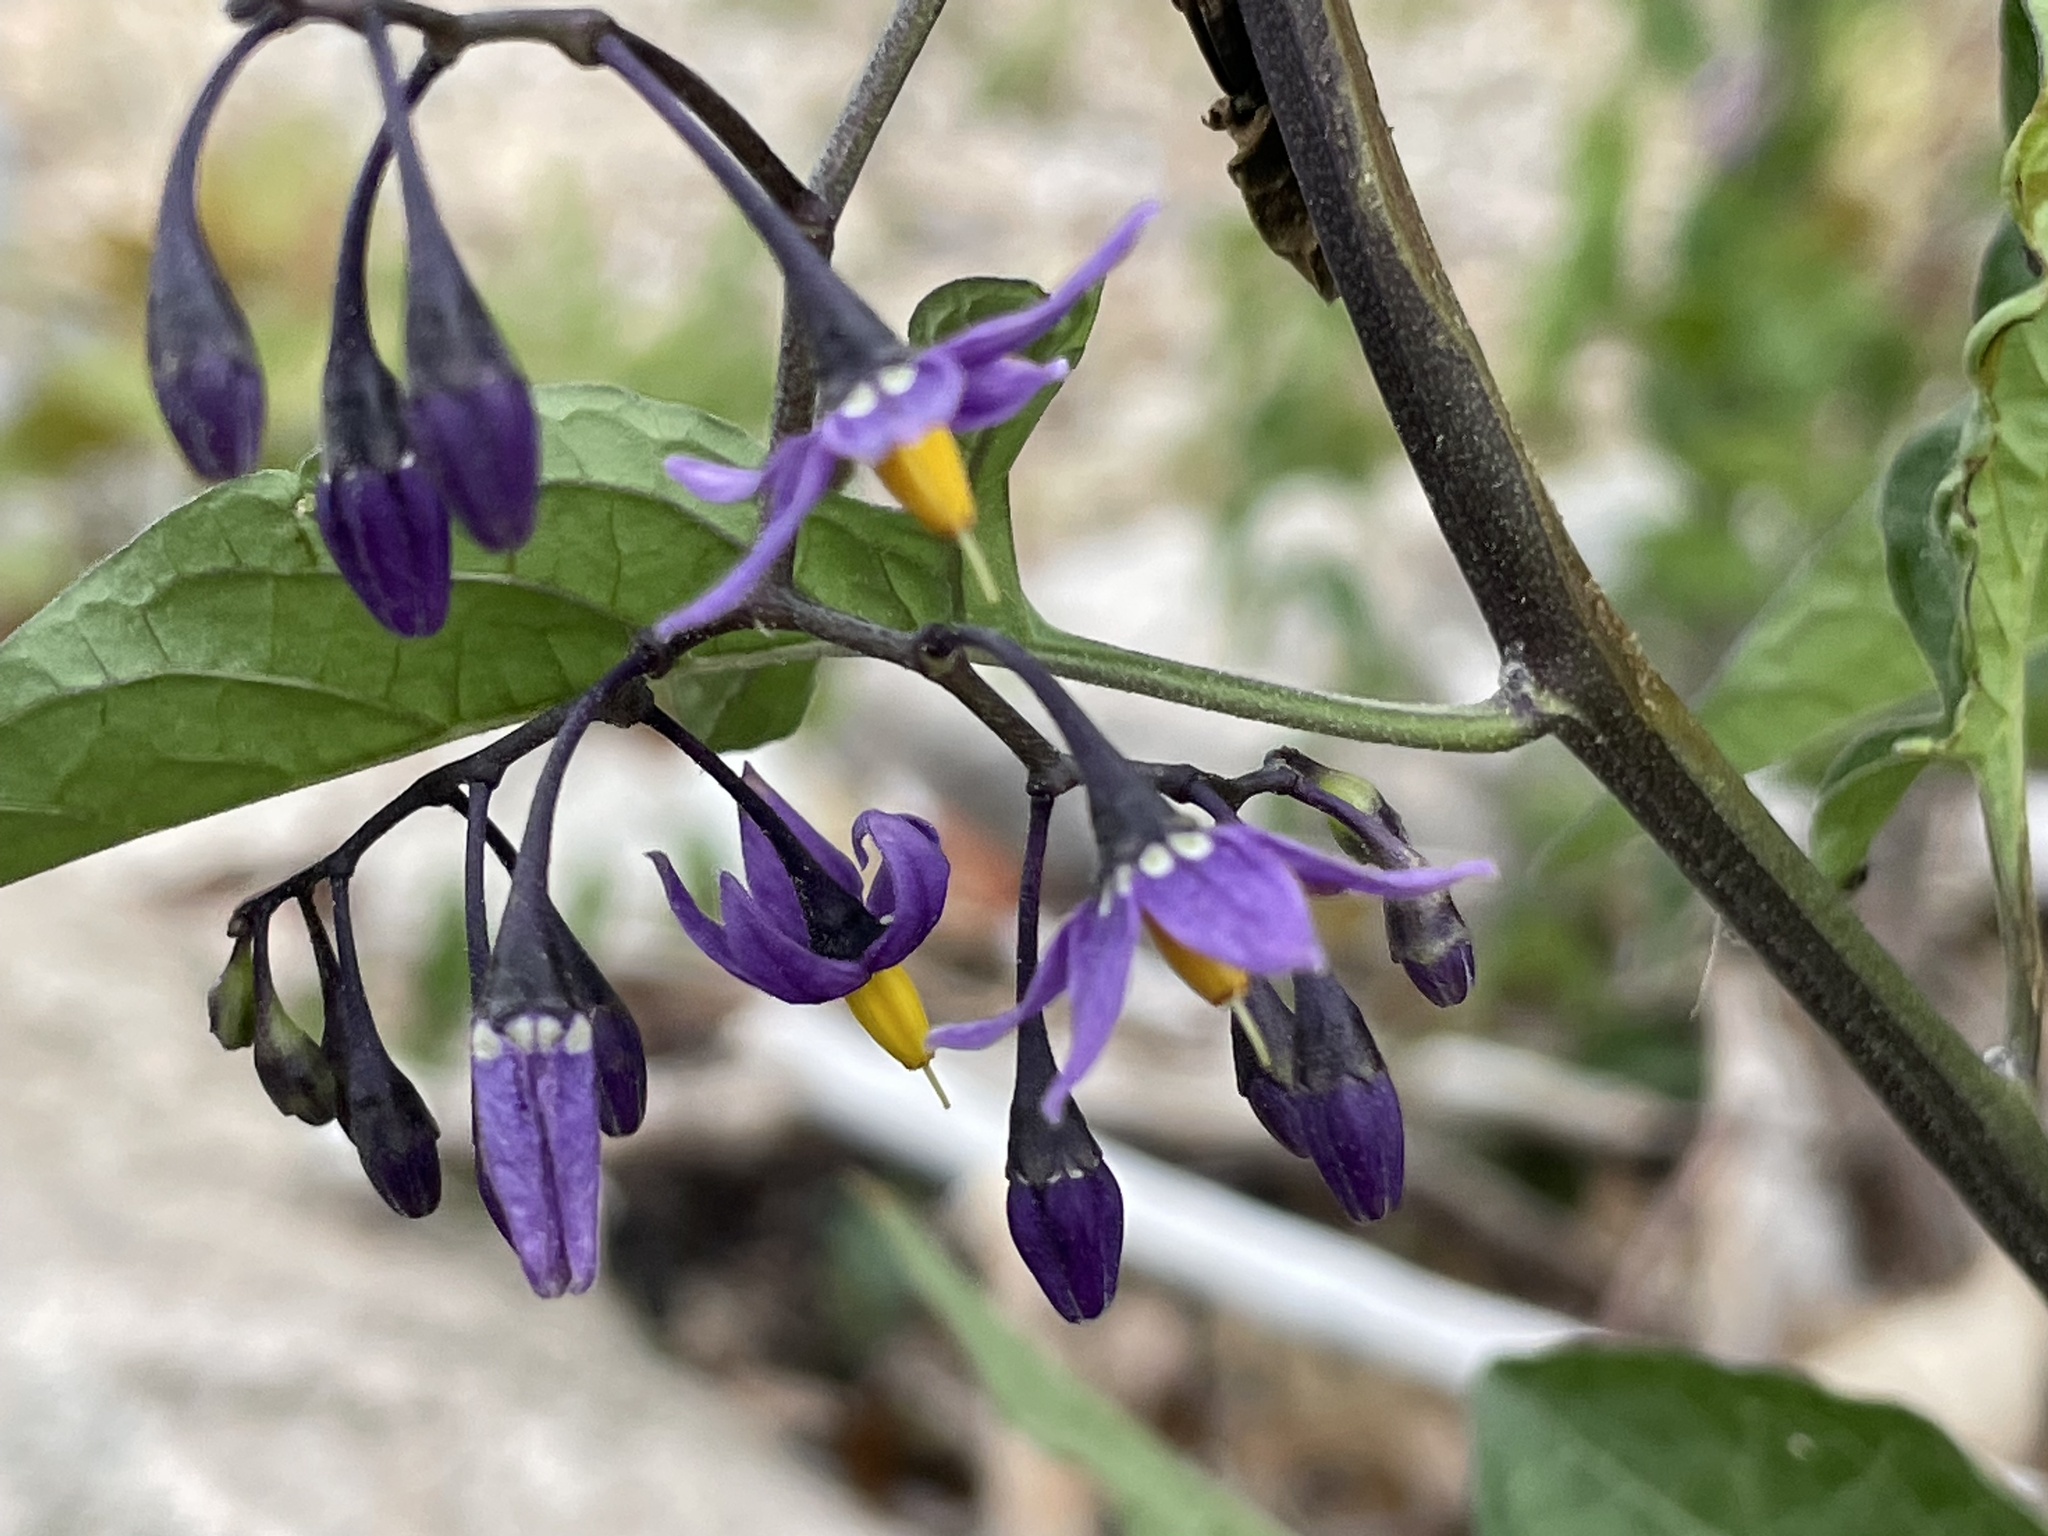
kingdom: Plantae
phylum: Tracheophyta
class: Magnoliopsida
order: Solanales
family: Solanaceae
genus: Solanum
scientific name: Solanum dulcamara
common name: Climbing nightshade
